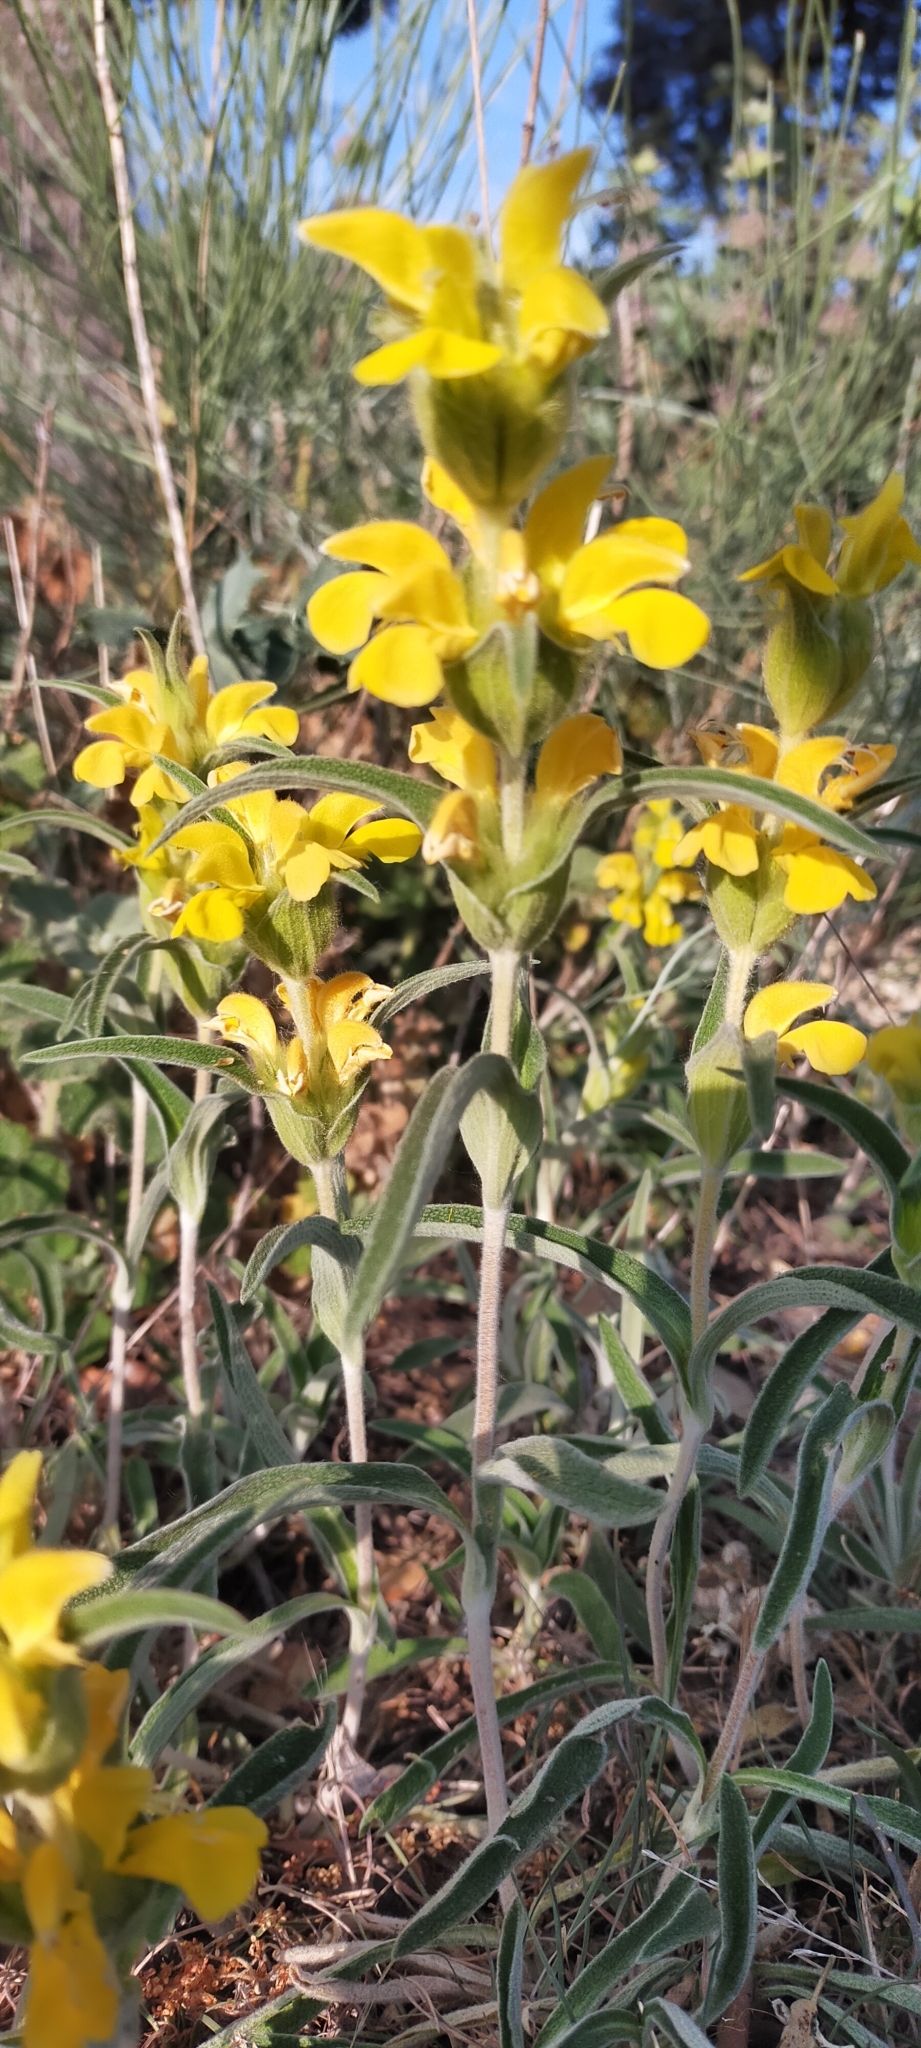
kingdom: Plantae
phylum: Tracheophyta
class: Magnoliopsida
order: Lamiales
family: Lamiaceae
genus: Phlomis
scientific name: Phlomis lychnitis
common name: Lampwickplant
